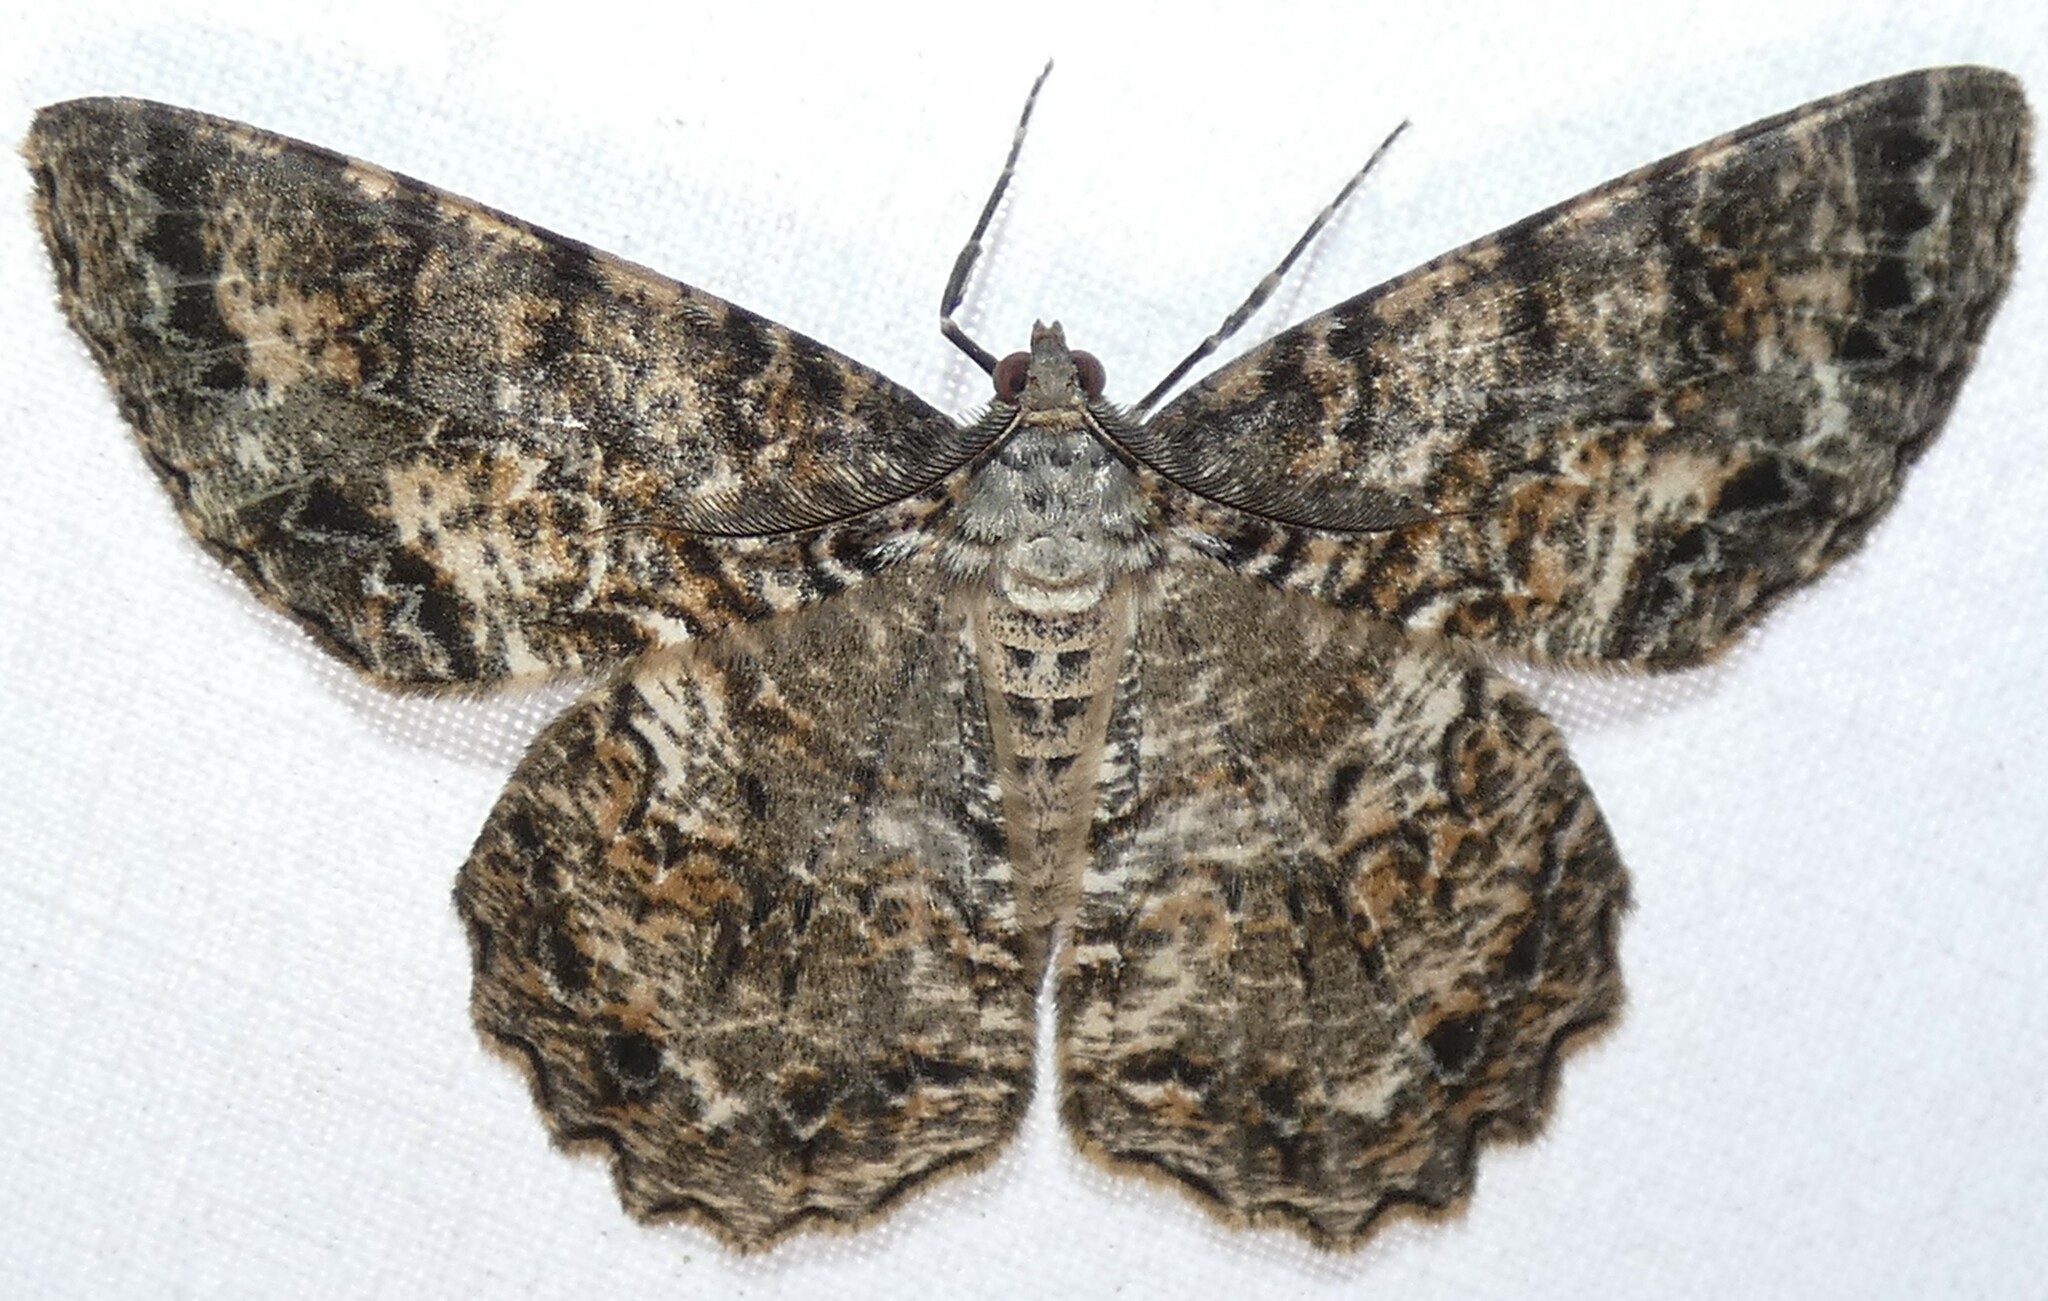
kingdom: Animalia
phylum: Arthropoda
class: Insecta
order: Lepidoptera
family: Geometridae
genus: Epimecis
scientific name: Epimecis hortaria
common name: Tulip-tree beauty
